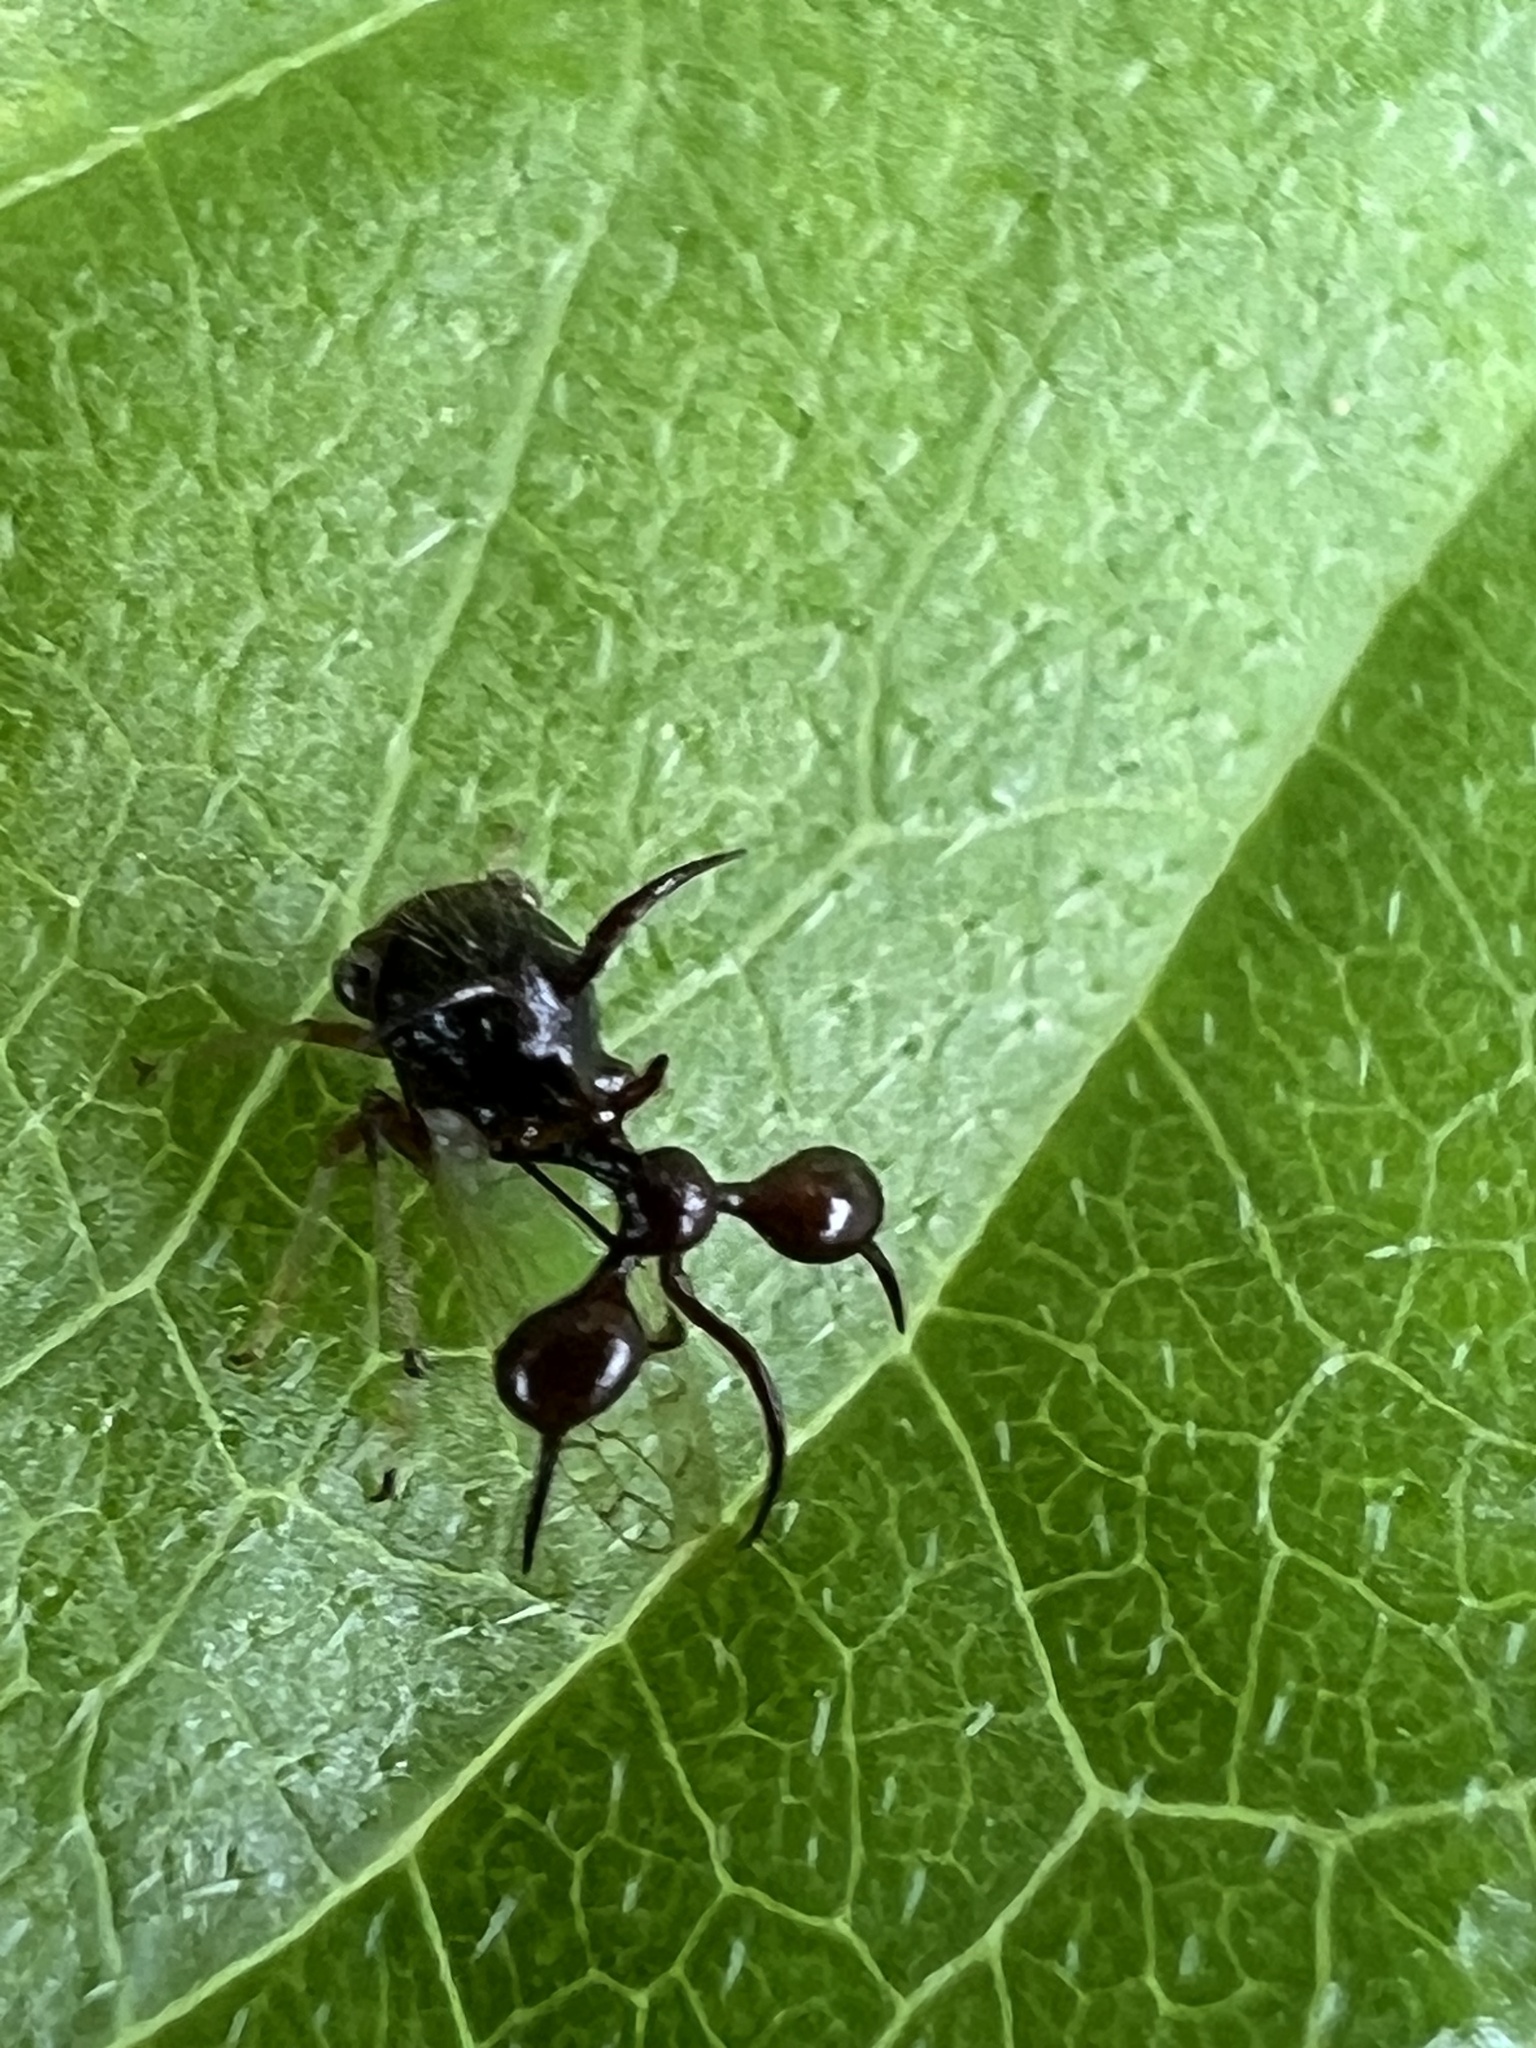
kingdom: Animalia
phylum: Arthropoda
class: Insecta
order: Hemiptera
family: Membracidae
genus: Cyphonia
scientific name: Cyphonia clavata
